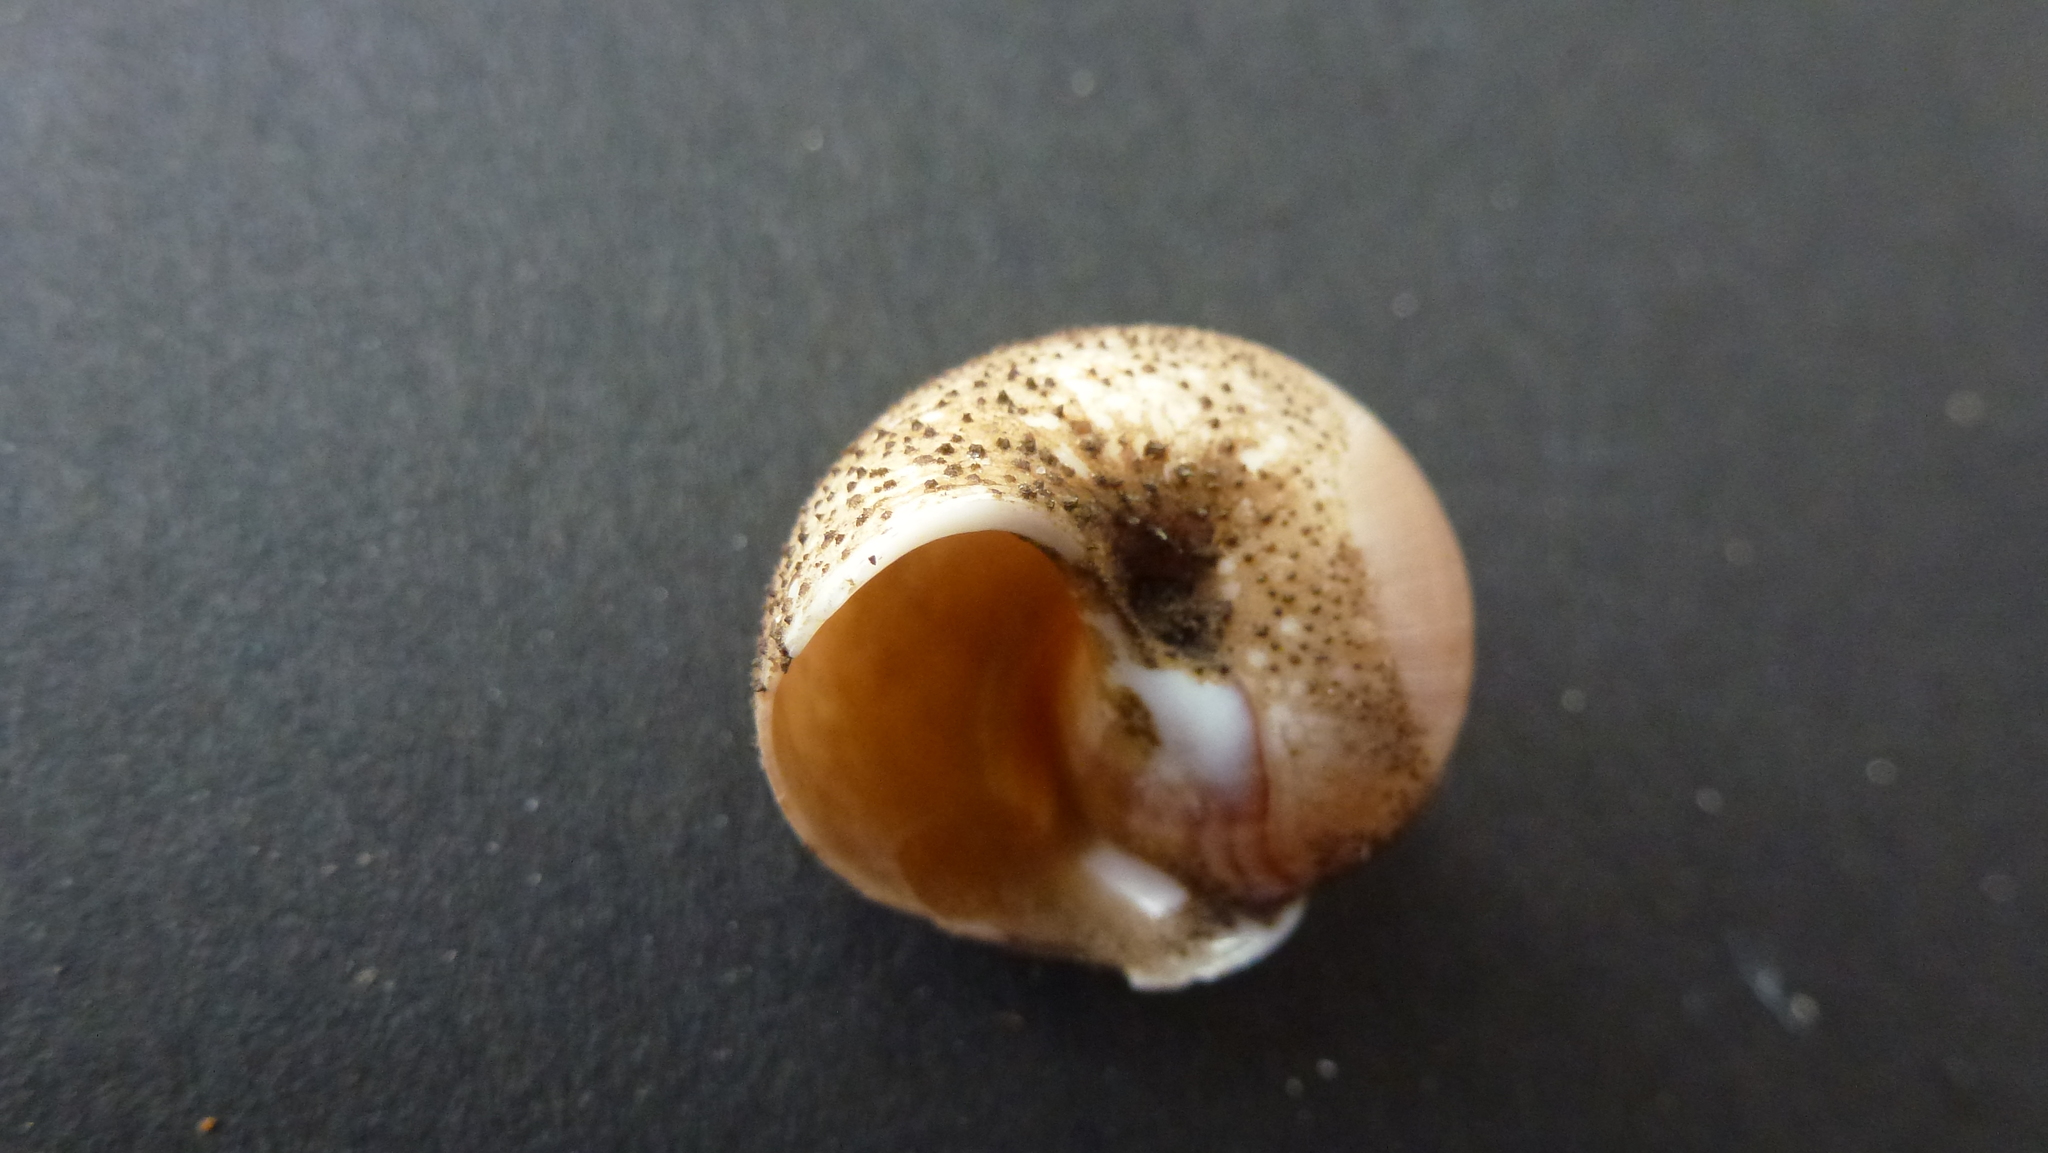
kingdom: Animalia
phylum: Cnidaria
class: Hydrozoa
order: Anthoathecata
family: Hydractiniidae
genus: Hydractinia
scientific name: Hydractinia echinata
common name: Rough hydroid
